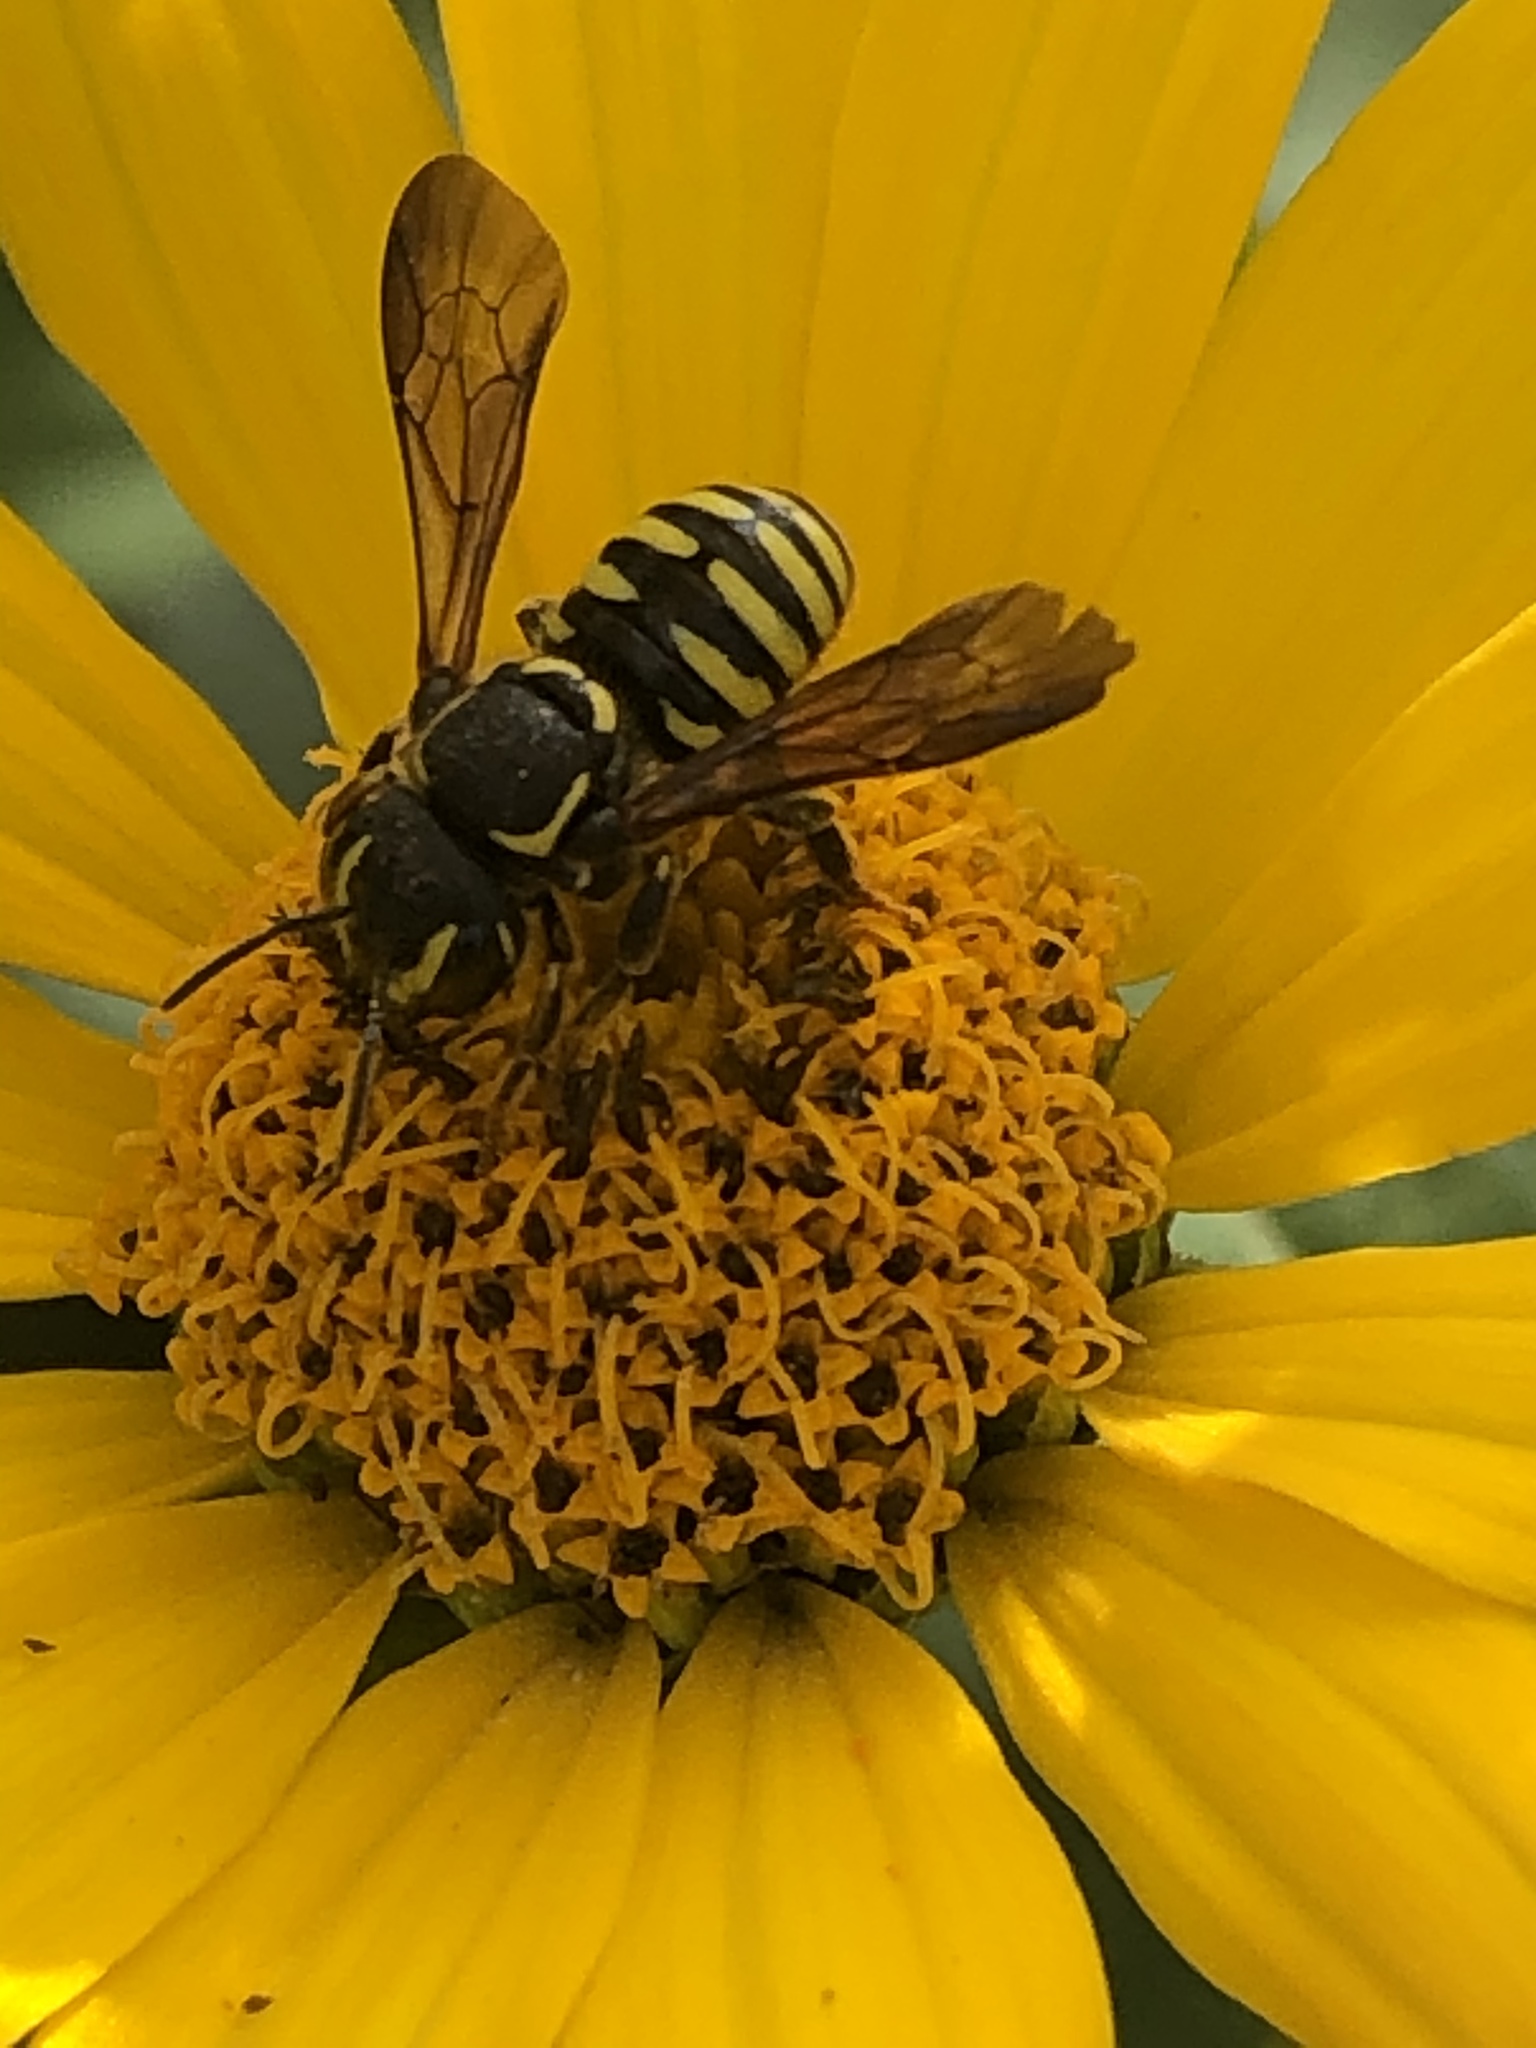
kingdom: Animalia
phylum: Arthropoda
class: Insecta
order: Hymenoptera
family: Megachilidae
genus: Paranthidium
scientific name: Paranthidium jugatorium
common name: Sunflower burrowing-resin bee
